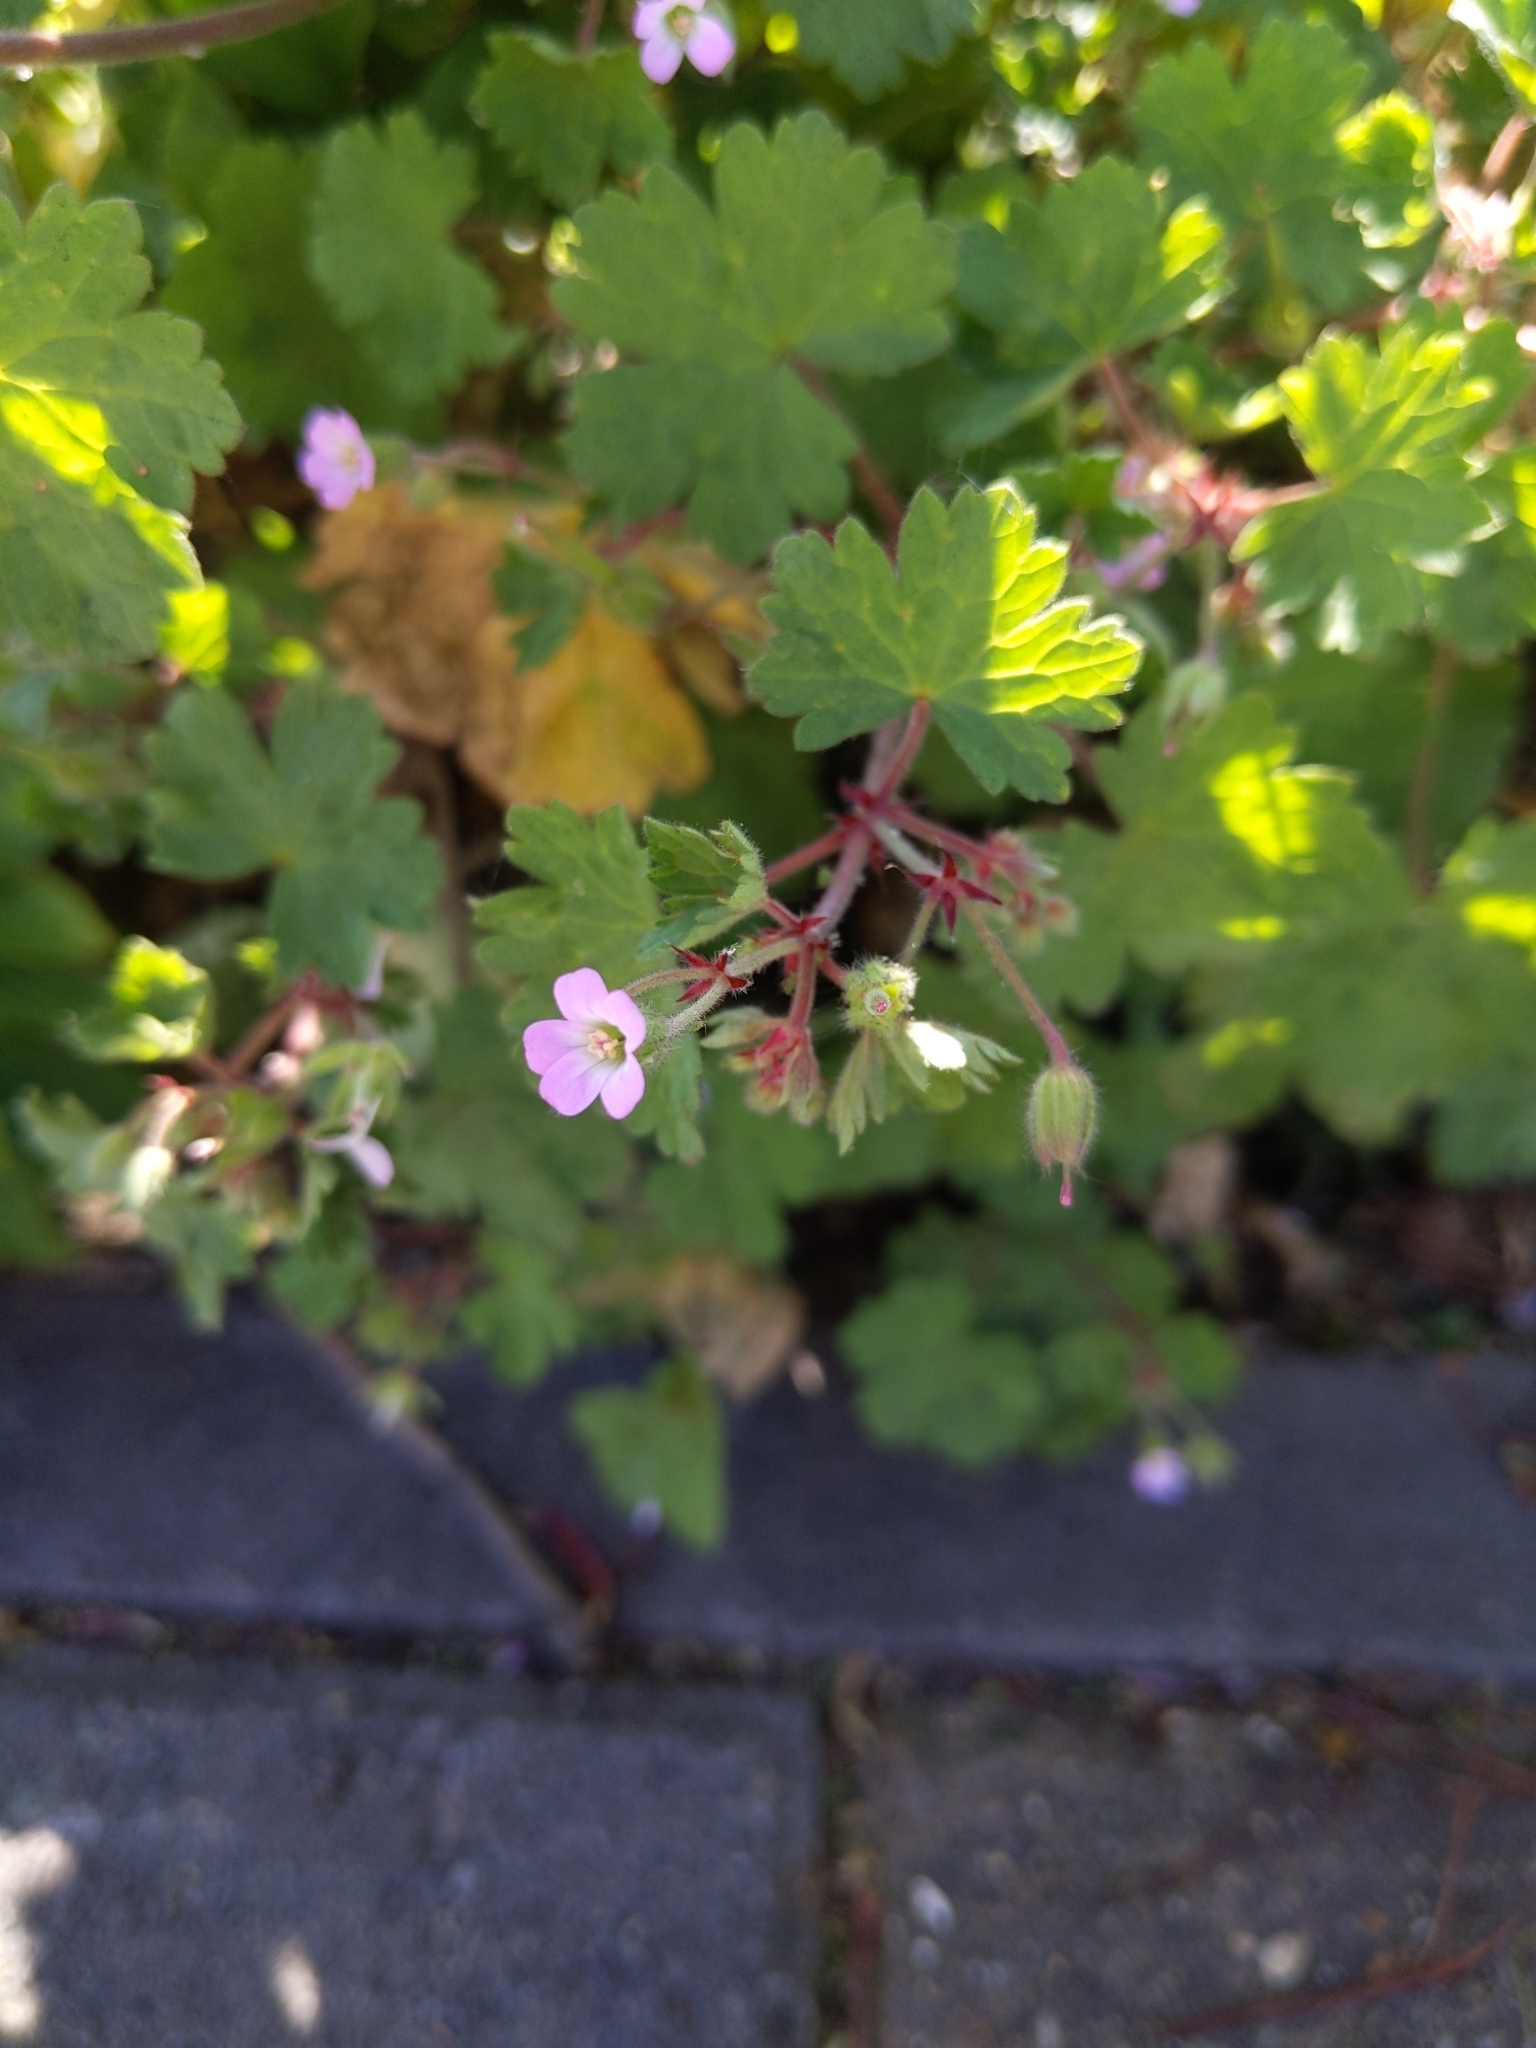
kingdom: Plantae
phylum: Tracheophyta
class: Magnoliopsida
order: Geraniales
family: Geraniaceae
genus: Geranium
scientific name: Geranium rotundifolium
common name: Round-leaved crane's-bill
